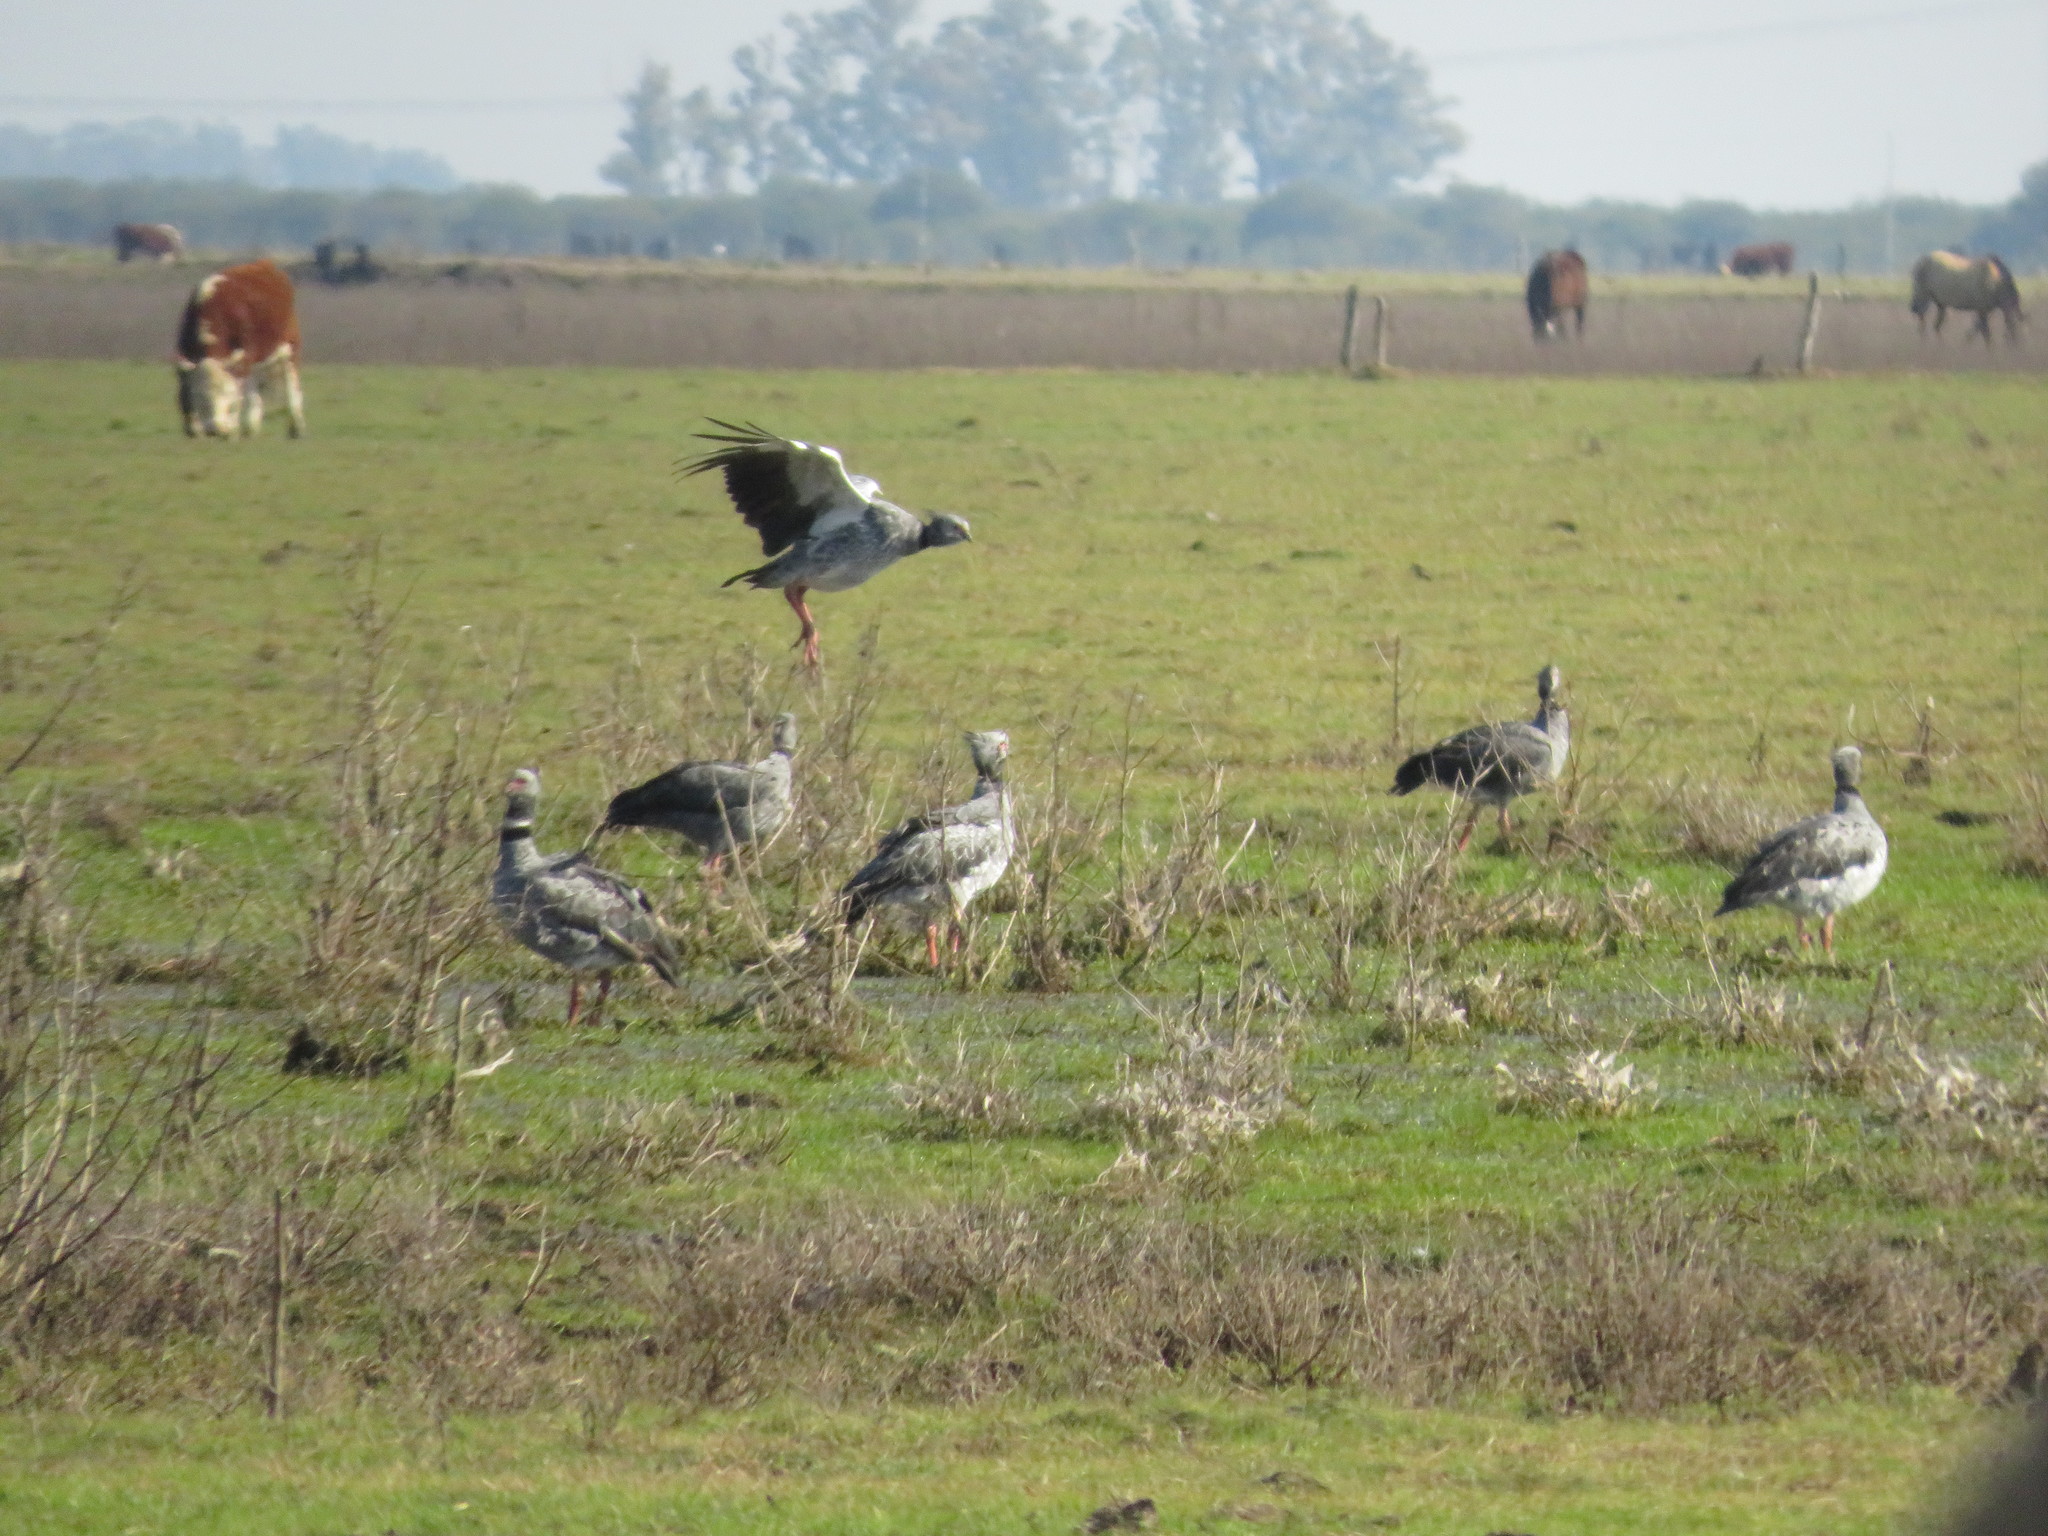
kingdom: Animalia
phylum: Chordata
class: Aves
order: Anseriformes
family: Anhimidae
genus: Chauna
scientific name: Chauna torquata
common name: Southern screamer
